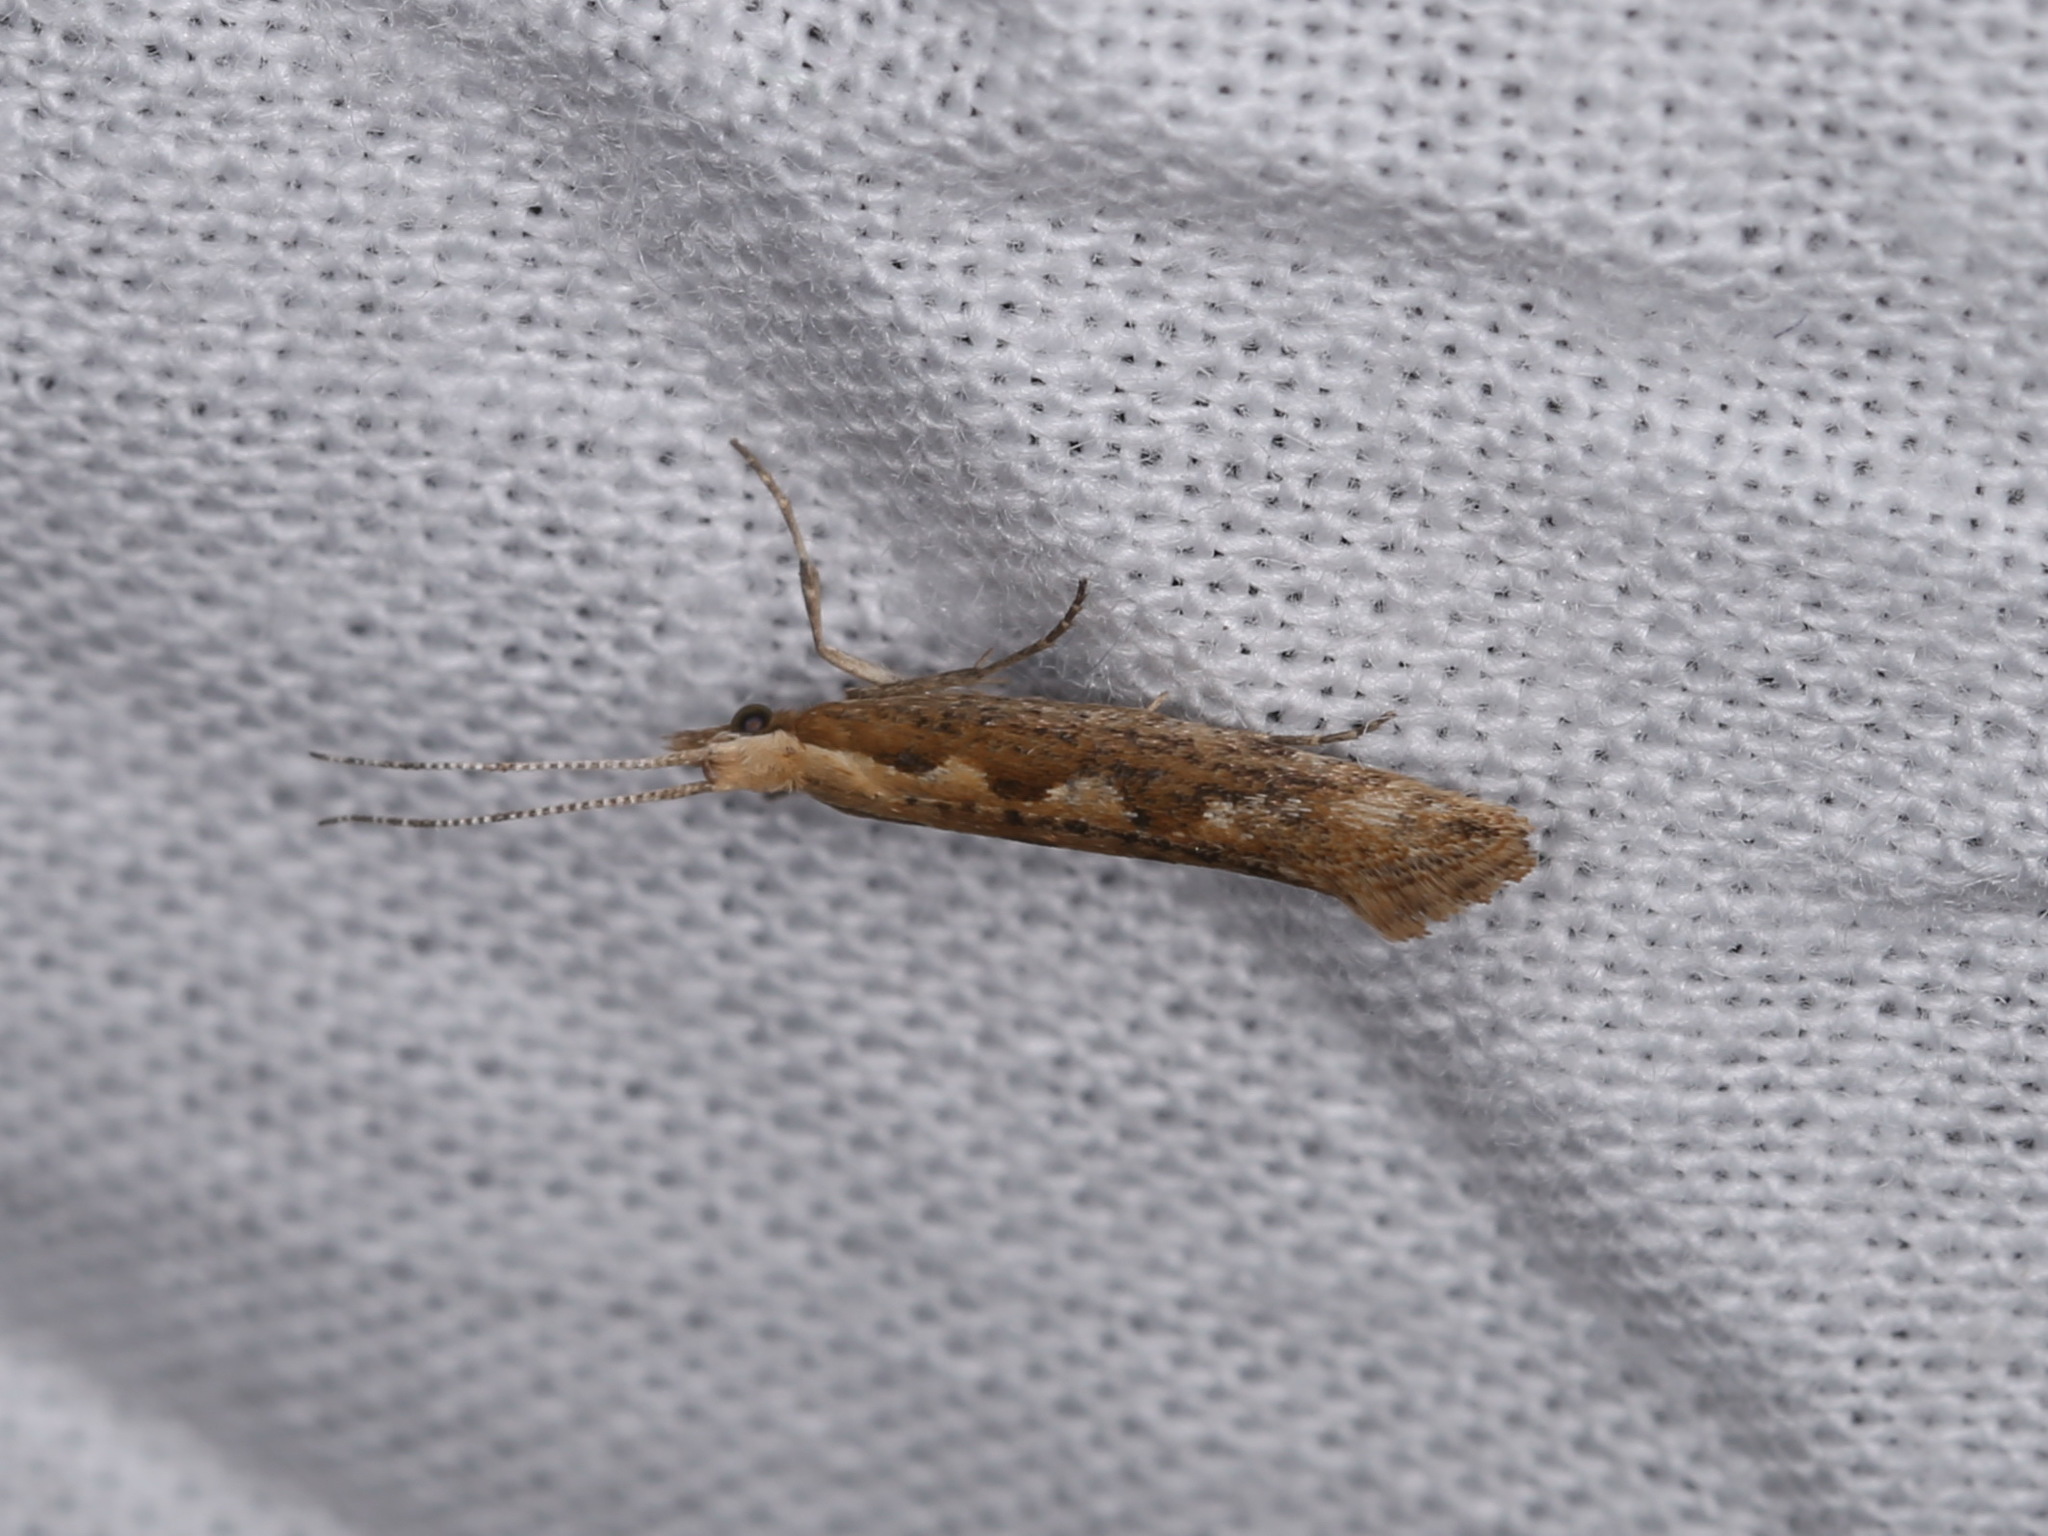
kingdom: Animalia
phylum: Arthropoda
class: Insecta
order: Lepidoptera
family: Plutellidae
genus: Plutella
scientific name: Plutella xylostella
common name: Diamond-back moth
